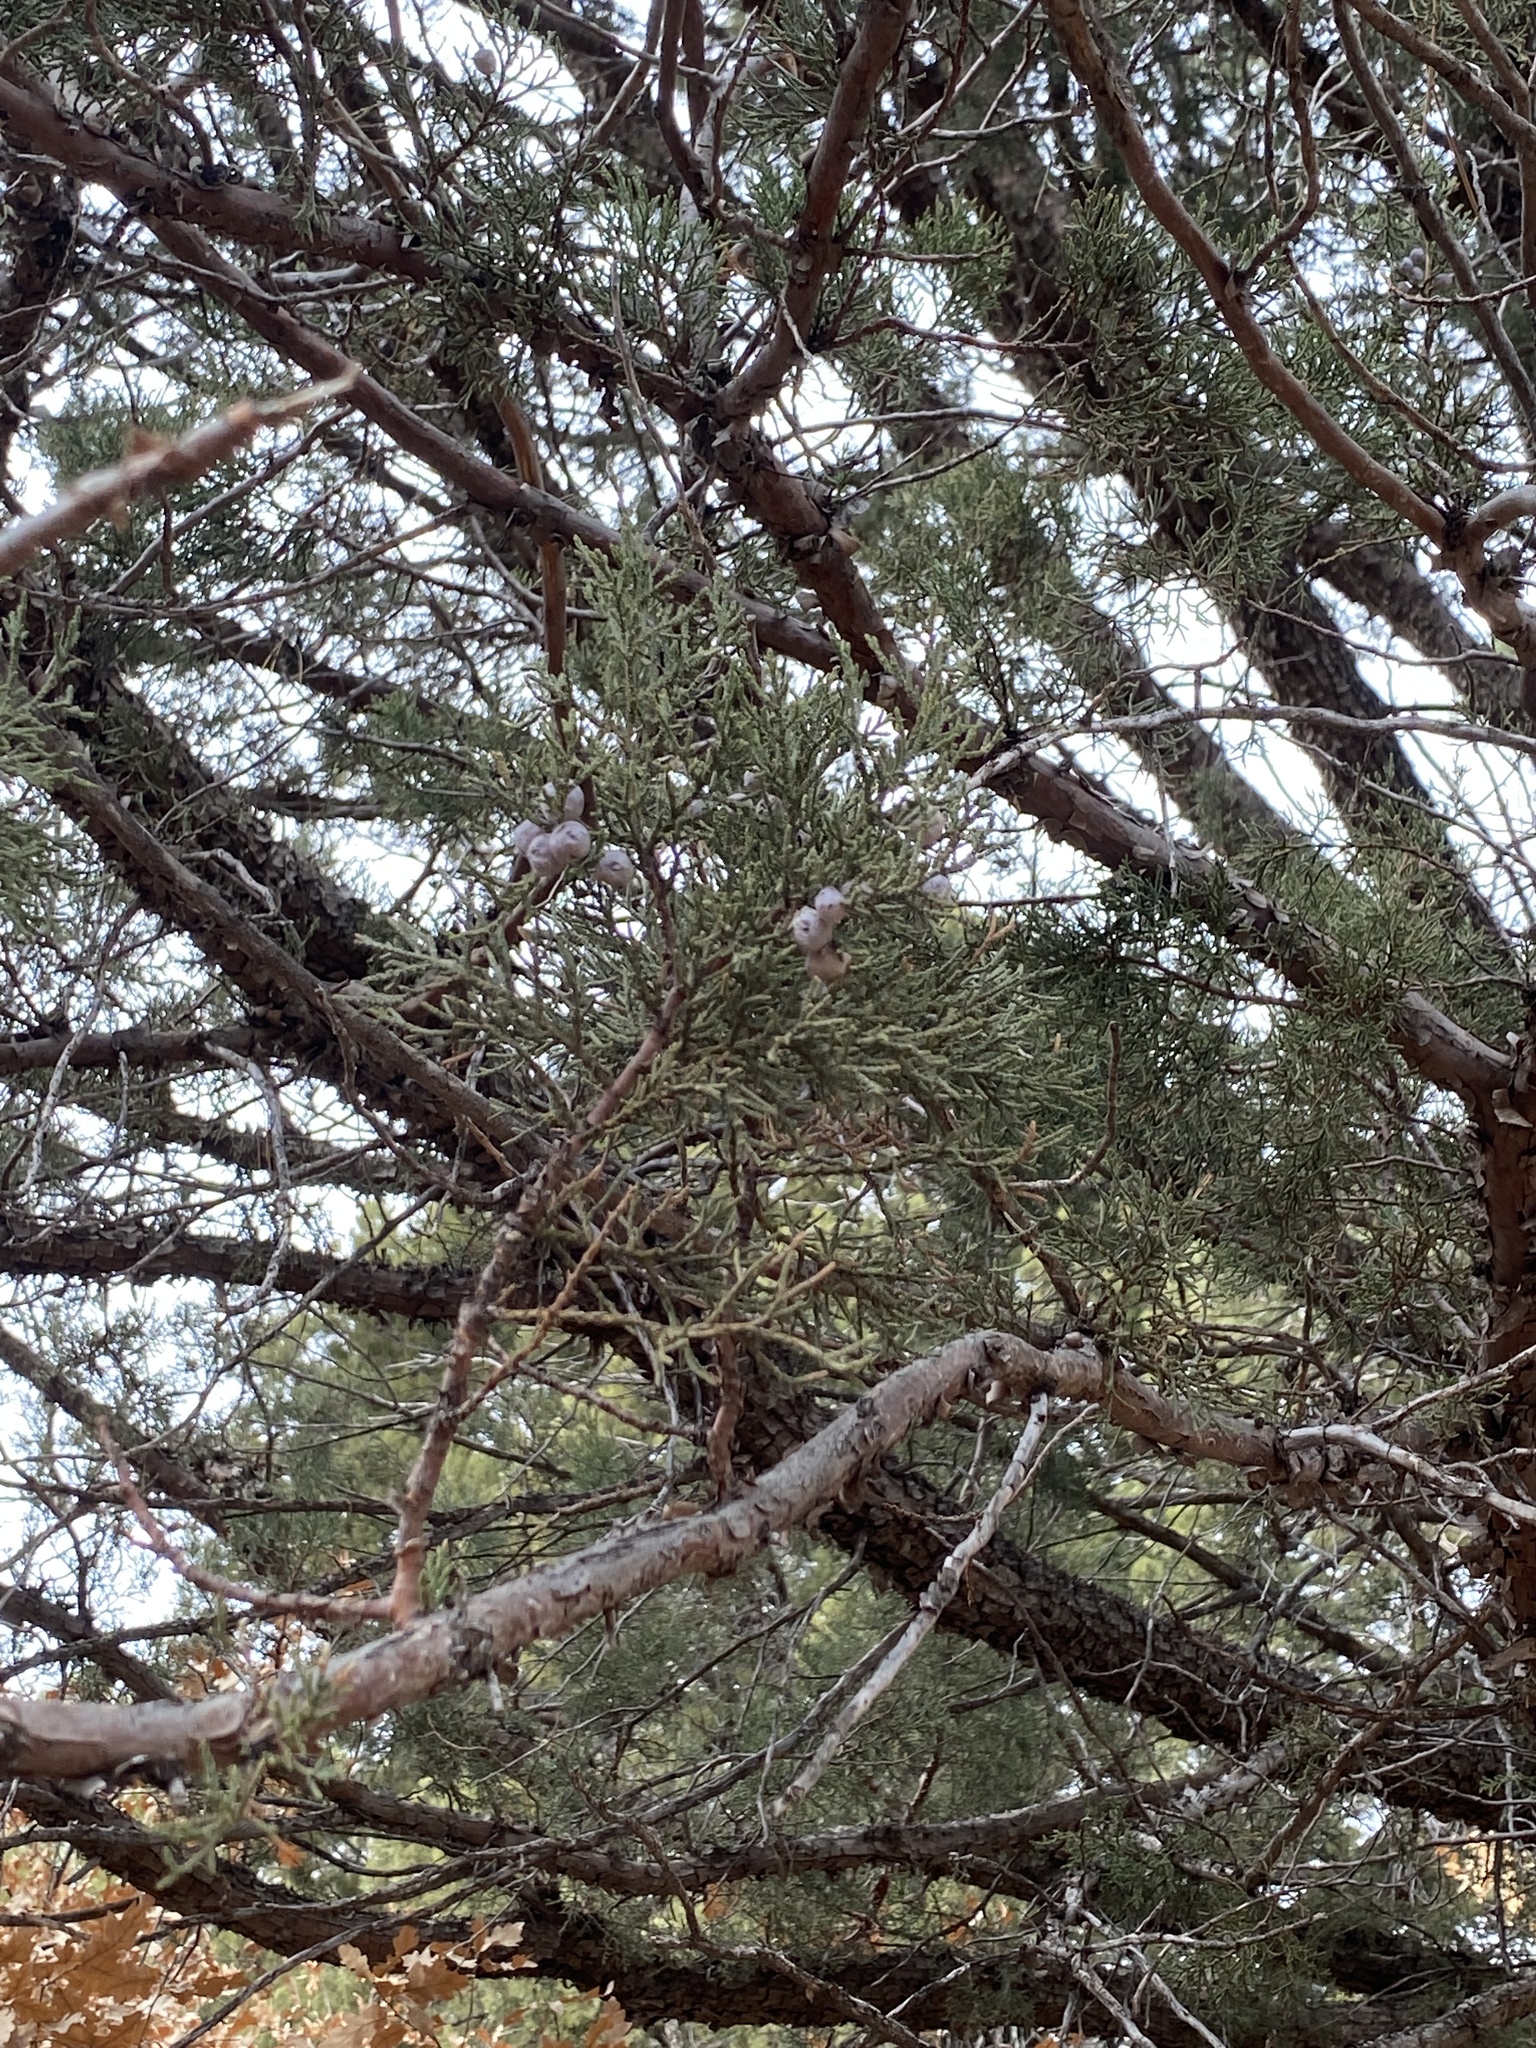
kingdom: Plantae
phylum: Tracheophyta
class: Pinopsida
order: Pinales
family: Cupressaceae
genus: Juniperus
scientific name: Juniperus deppeana
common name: Alligator juniper
